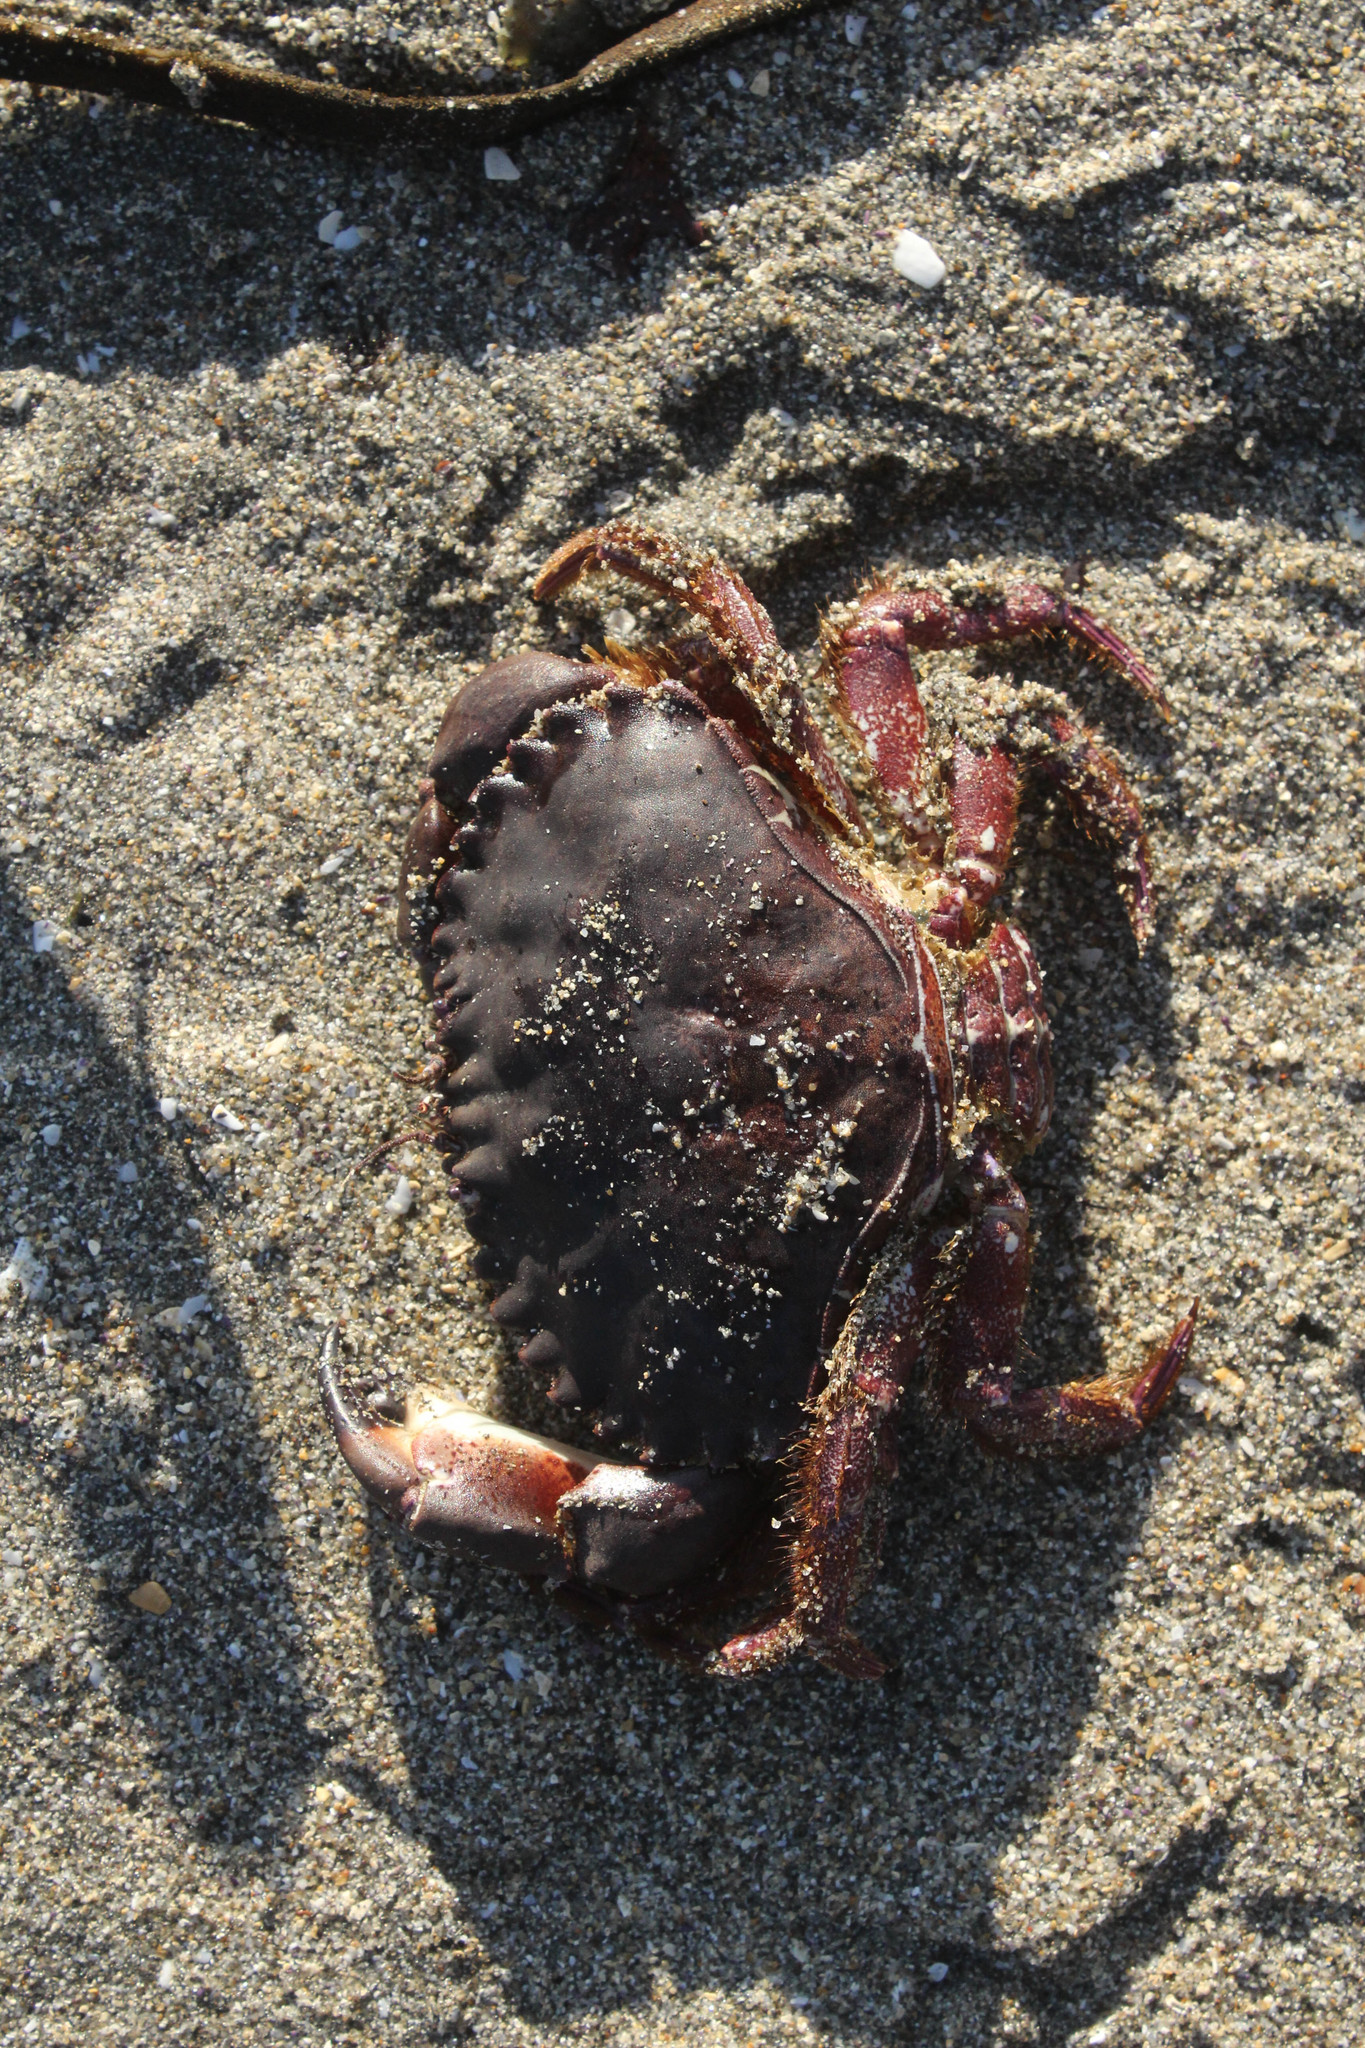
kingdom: Animalia
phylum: Arthropoda
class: Malacostraca
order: Decapoda
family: Cancridae
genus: Romaleon
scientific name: Romaleon antennarium
